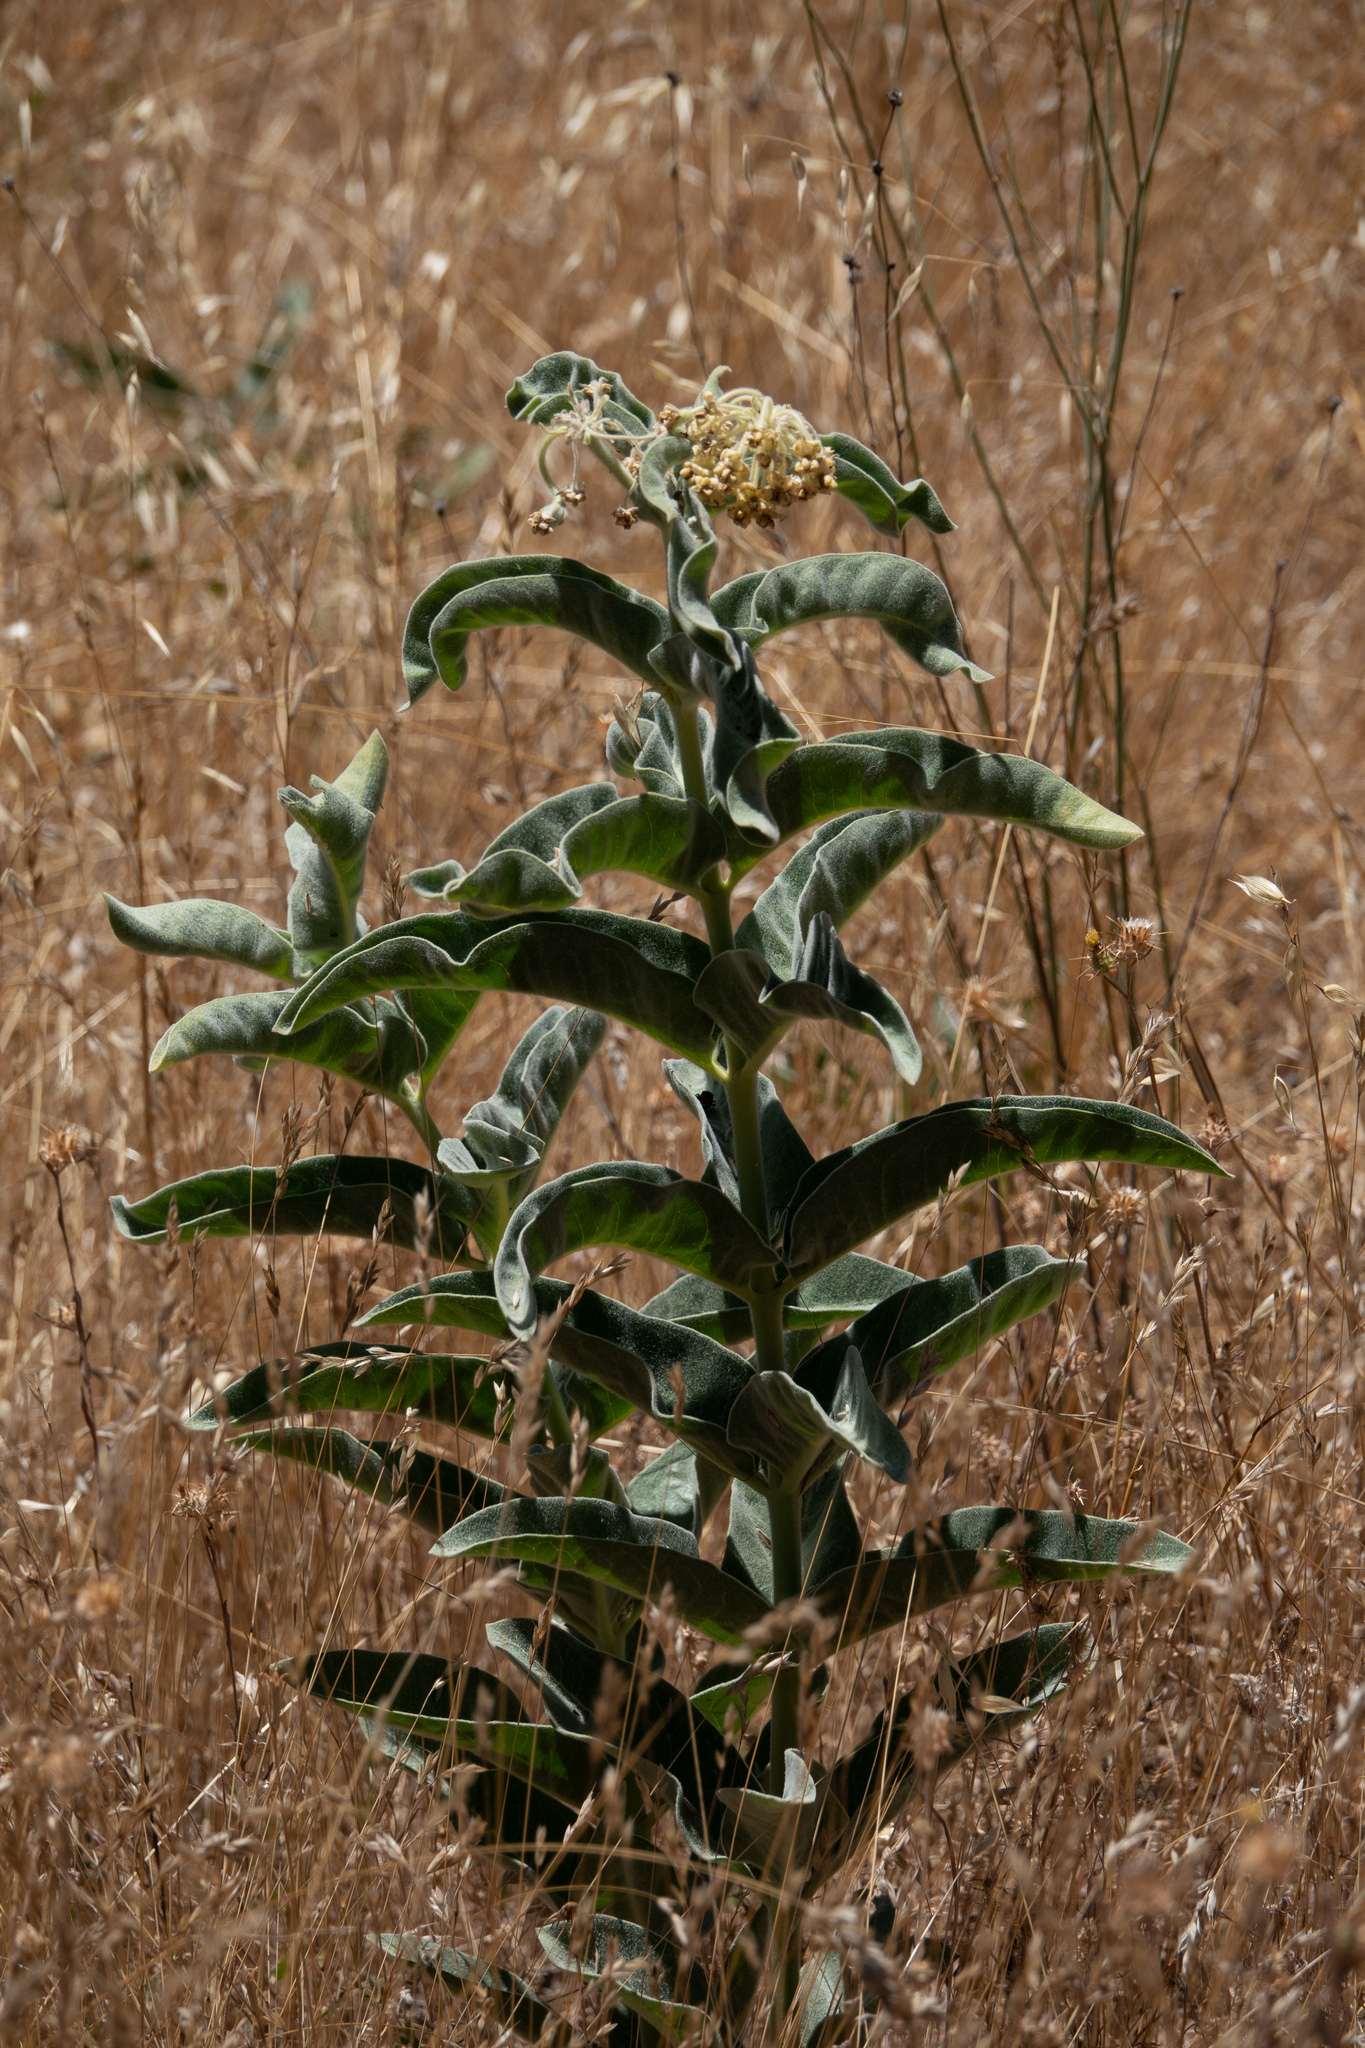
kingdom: Plantae
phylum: Tracheophyta
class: Magnoliopsida
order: Gentianales
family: Apocynaceae
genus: Asclepias
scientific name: Asclepias eriocarpa
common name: Indian milkweed
